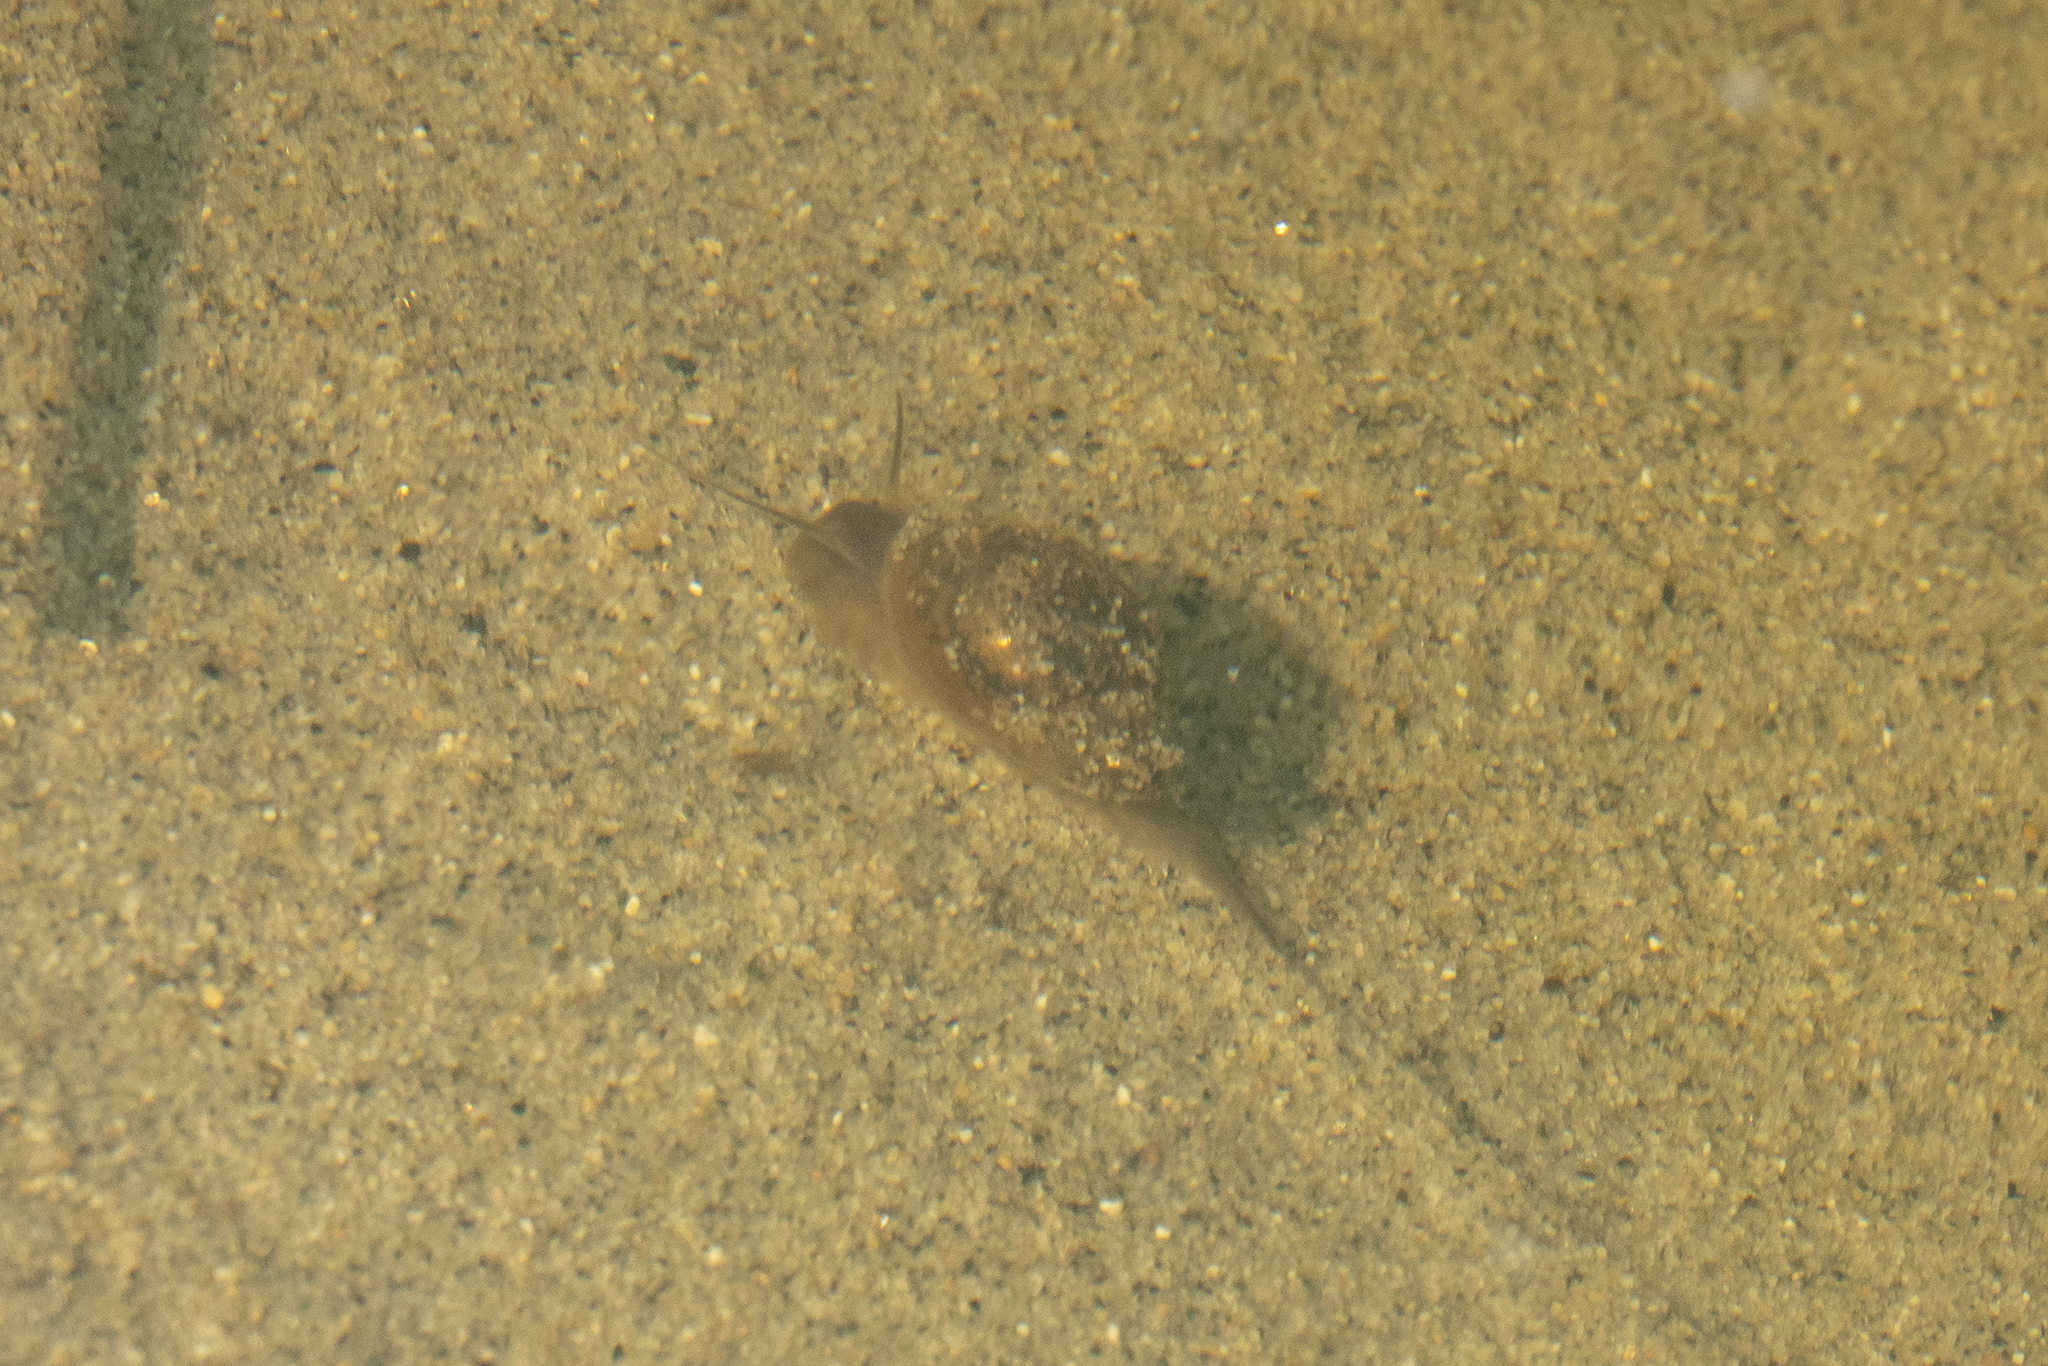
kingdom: Animalia
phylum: Mollusca
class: Gastropoda
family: Physidae
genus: Physella
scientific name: Physella acuta
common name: European physa
